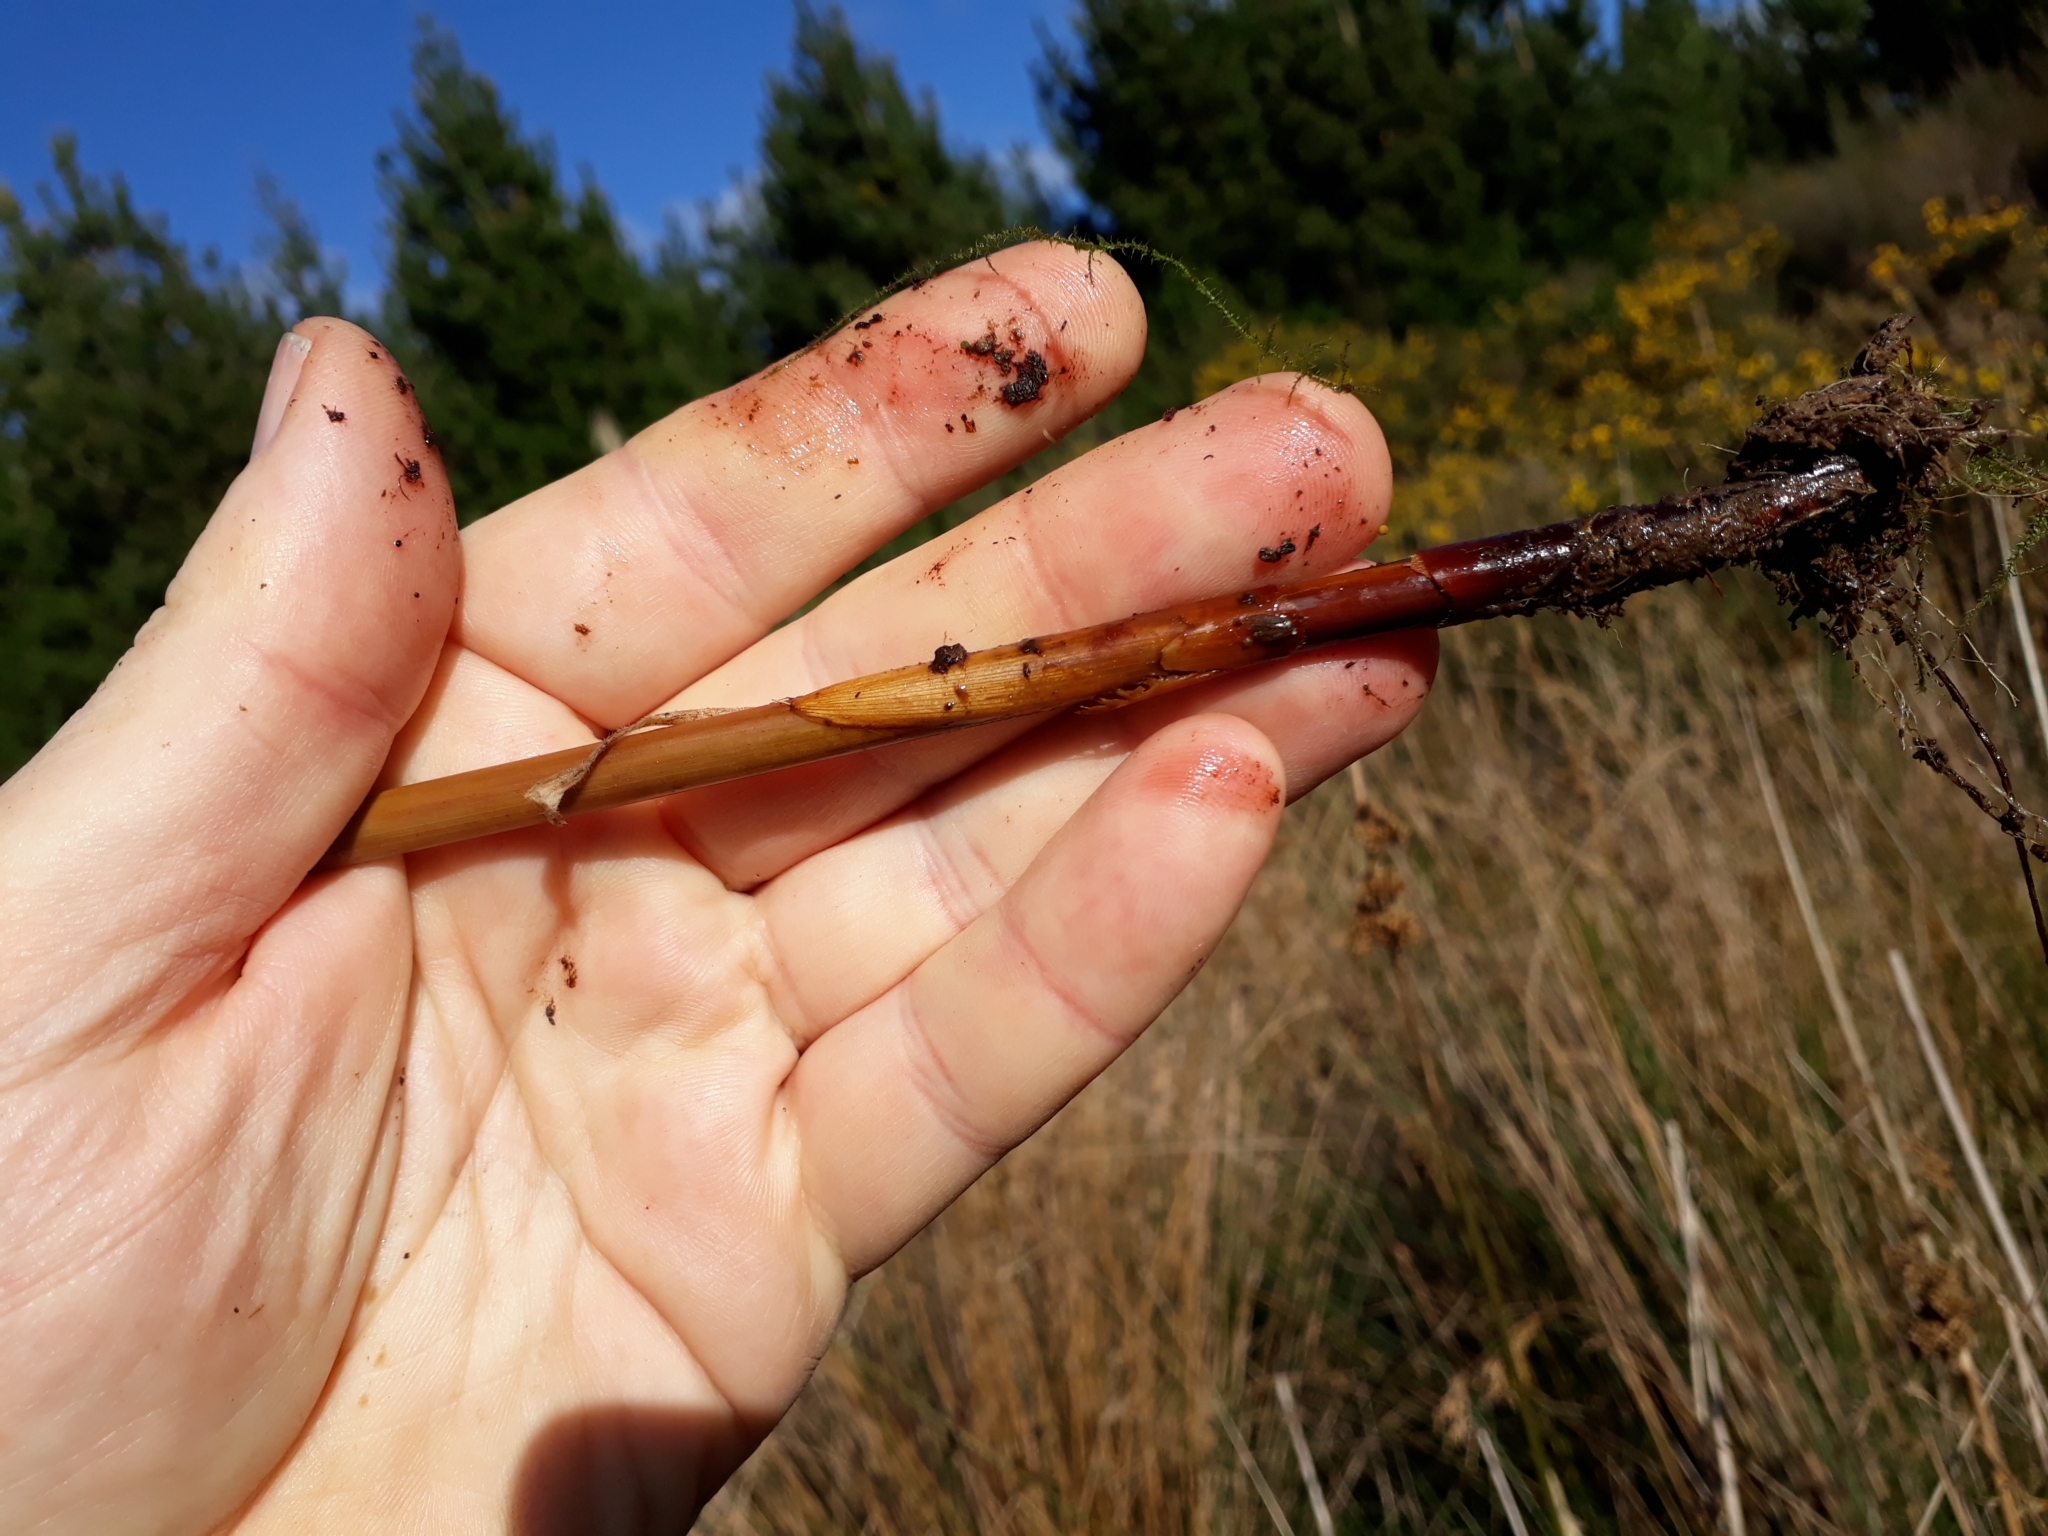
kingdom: Plantae
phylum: Tracheophyta
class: Liliopsida
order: Poales
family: Juncaceae
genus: Juncus
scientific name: Juncus pallidus
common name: Great soft-rush
